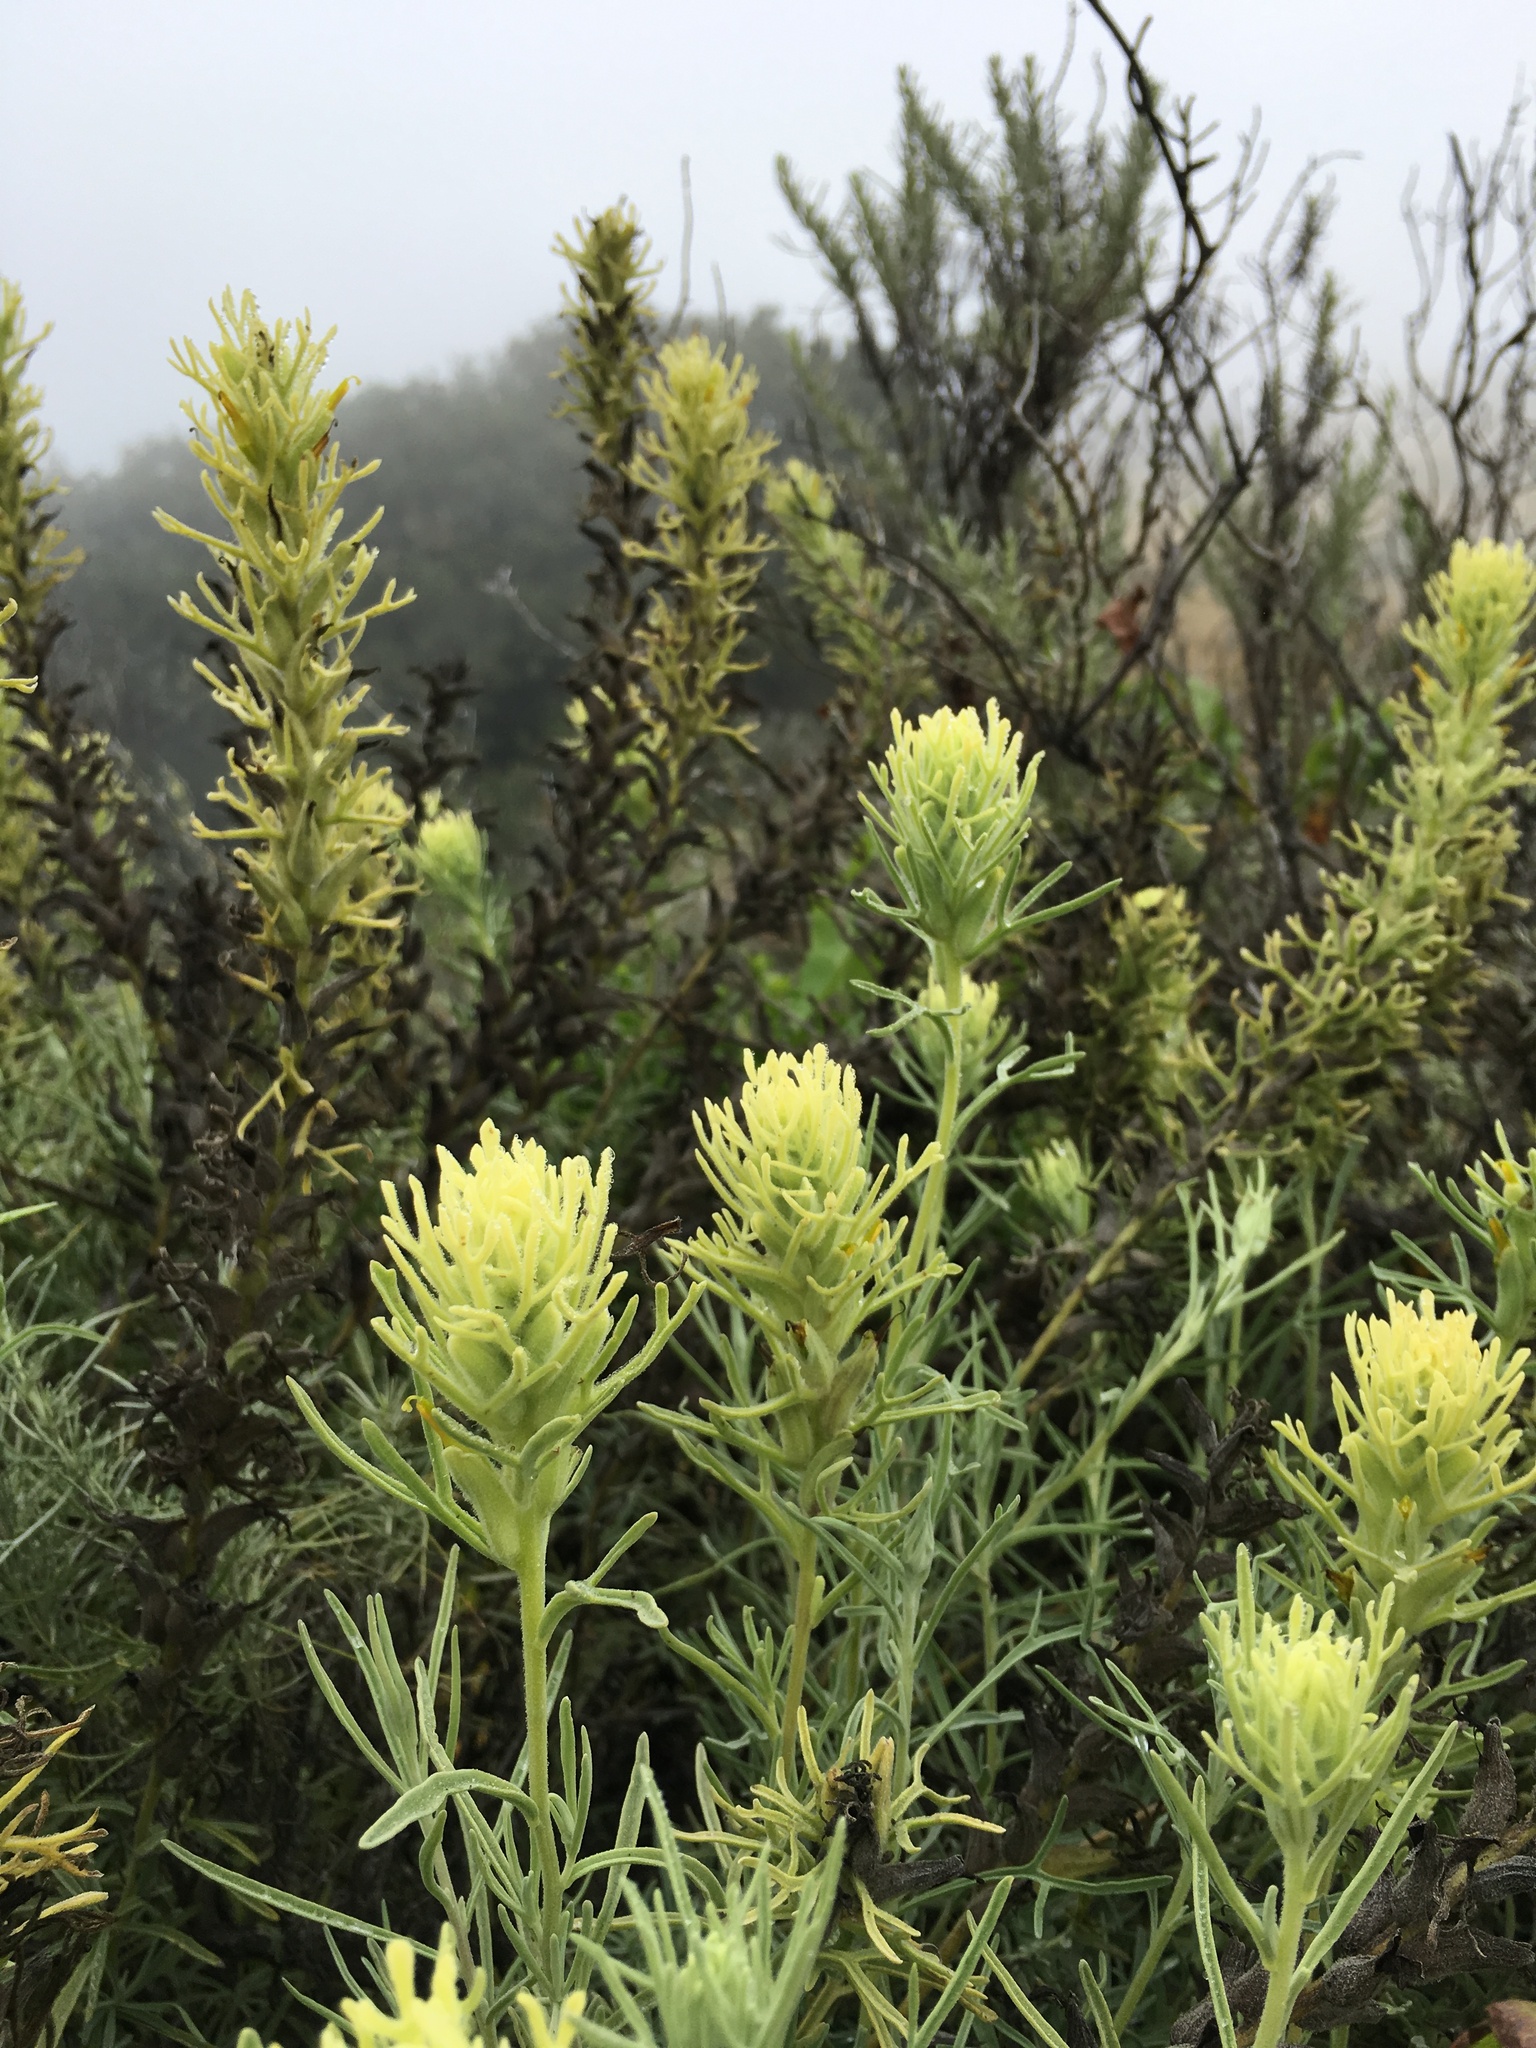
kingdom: Plantae
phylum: Tracheophyta
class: Magnoliopsida
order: Lamiales
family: Orobanchaceae
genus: Castilleja
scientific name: Castilleja grisea
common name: San clemente island indian paintbrush
